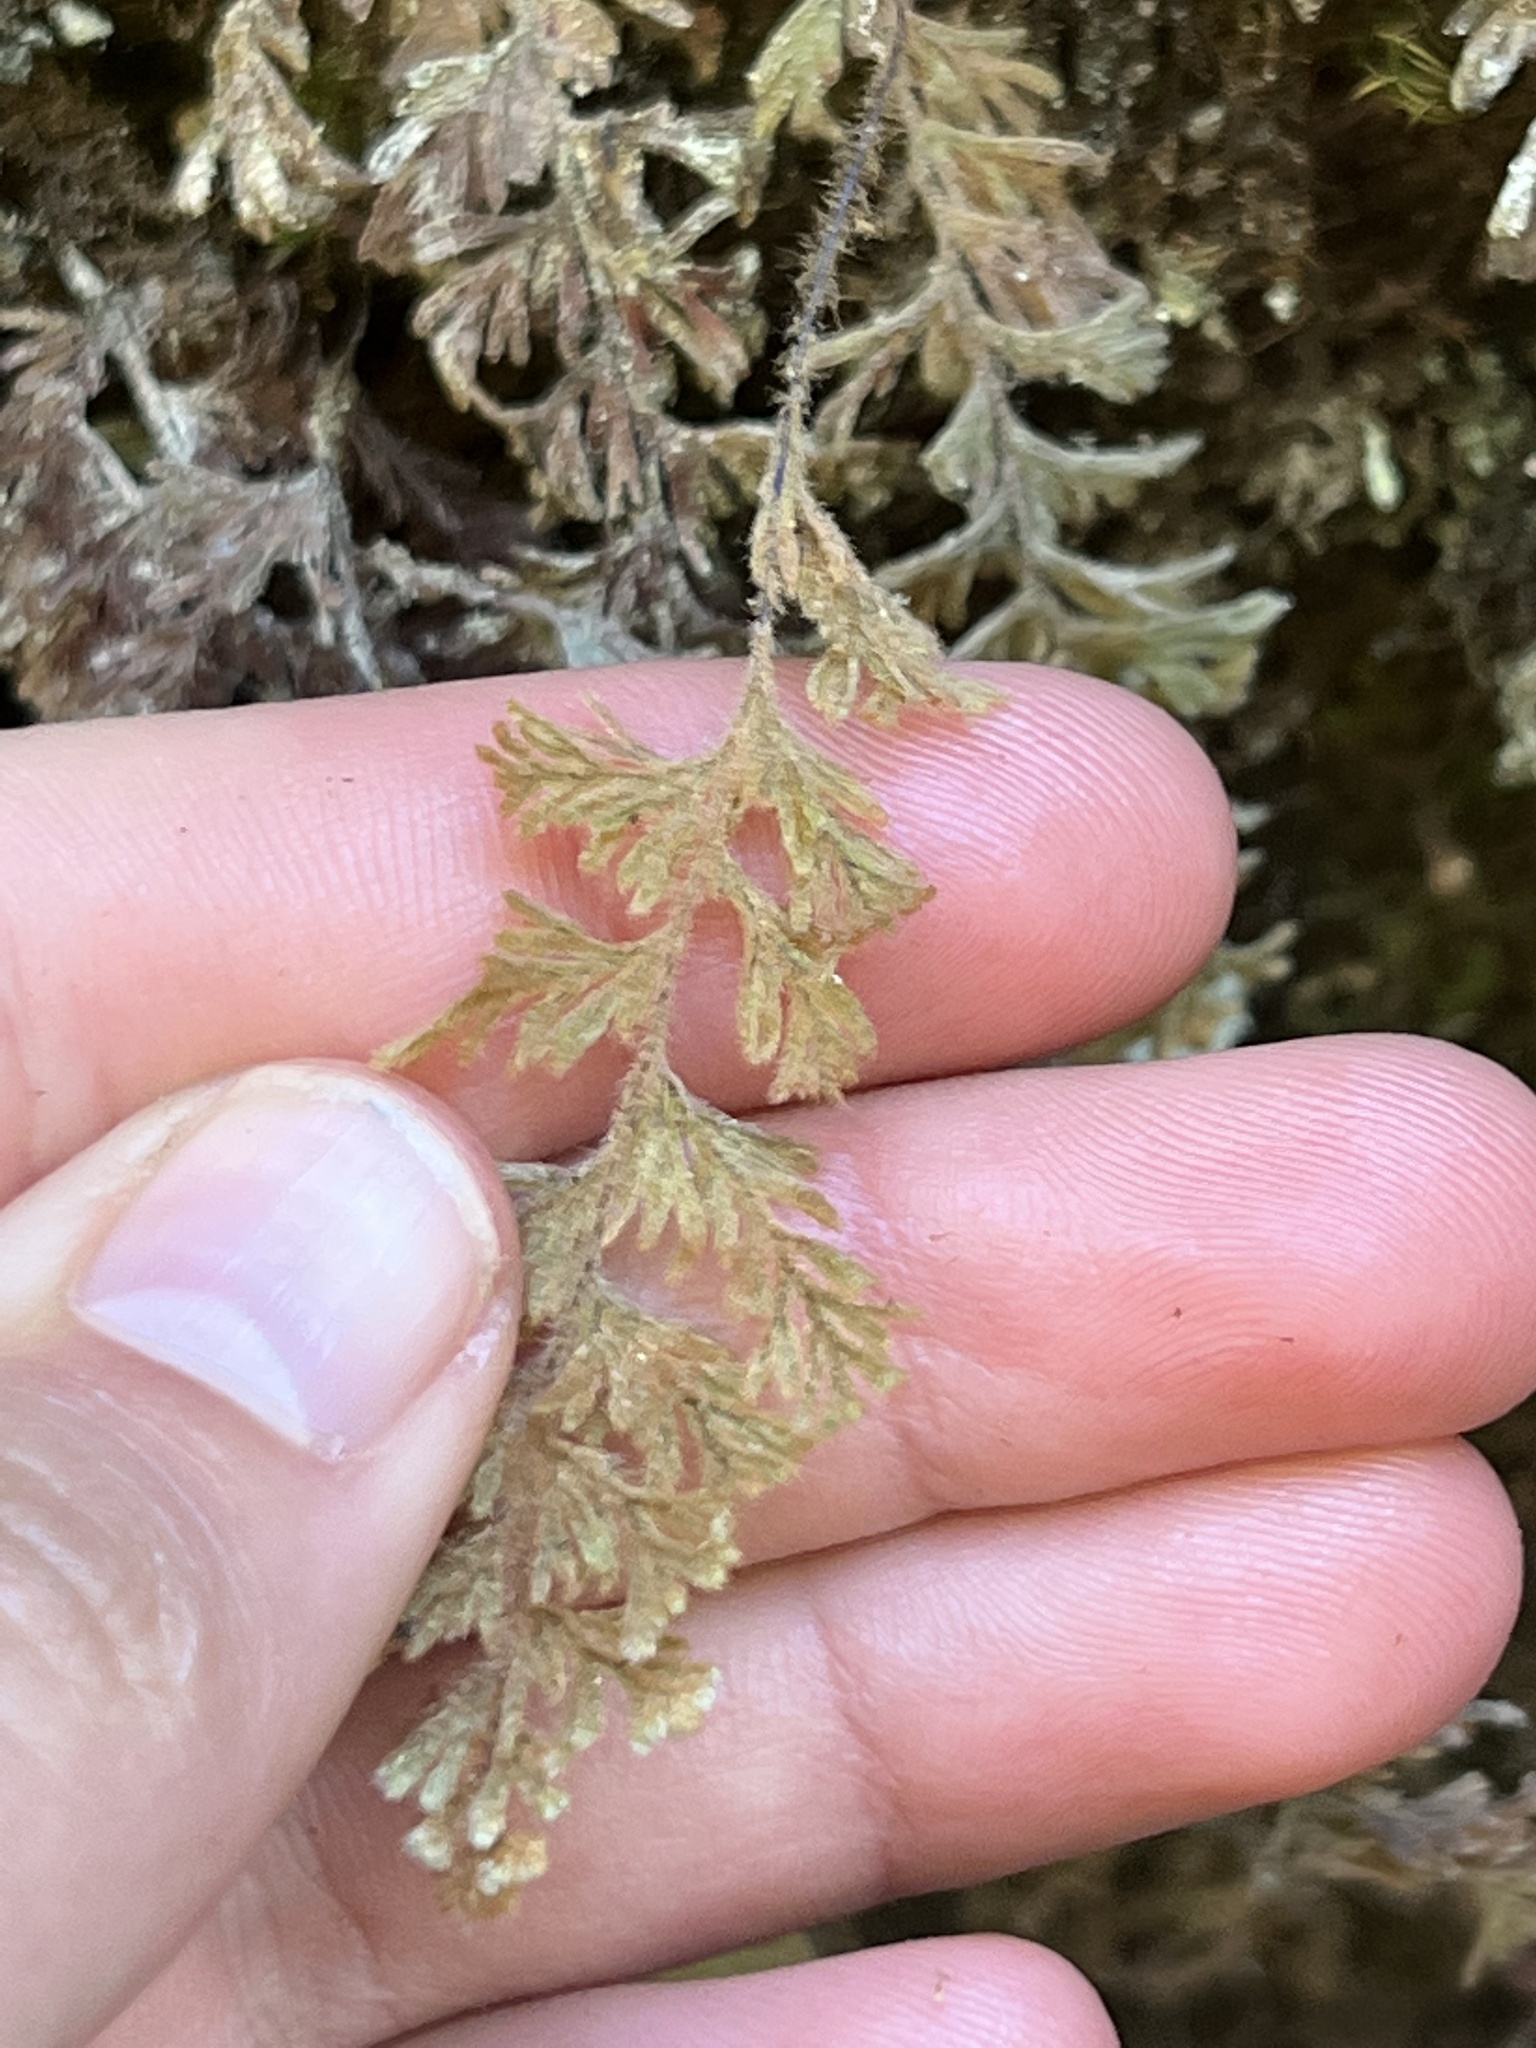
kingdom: Plantae
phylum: Tracheophyta
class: Polypodiopsida
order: Hymenophyllales
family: Hymenophyllaceae
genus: Hymenophyllum
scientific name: Hymenophyllum tomentosum
